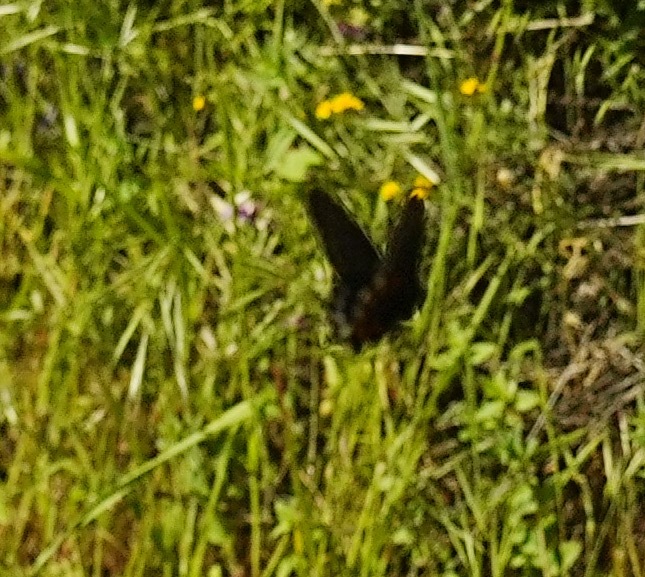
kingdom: Animalia
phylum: Arthropoda
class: Insecta
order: Lepidoptera
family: Papilionidae
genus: Battus
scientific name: Battus philenor
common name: Pipevine swallowtail
